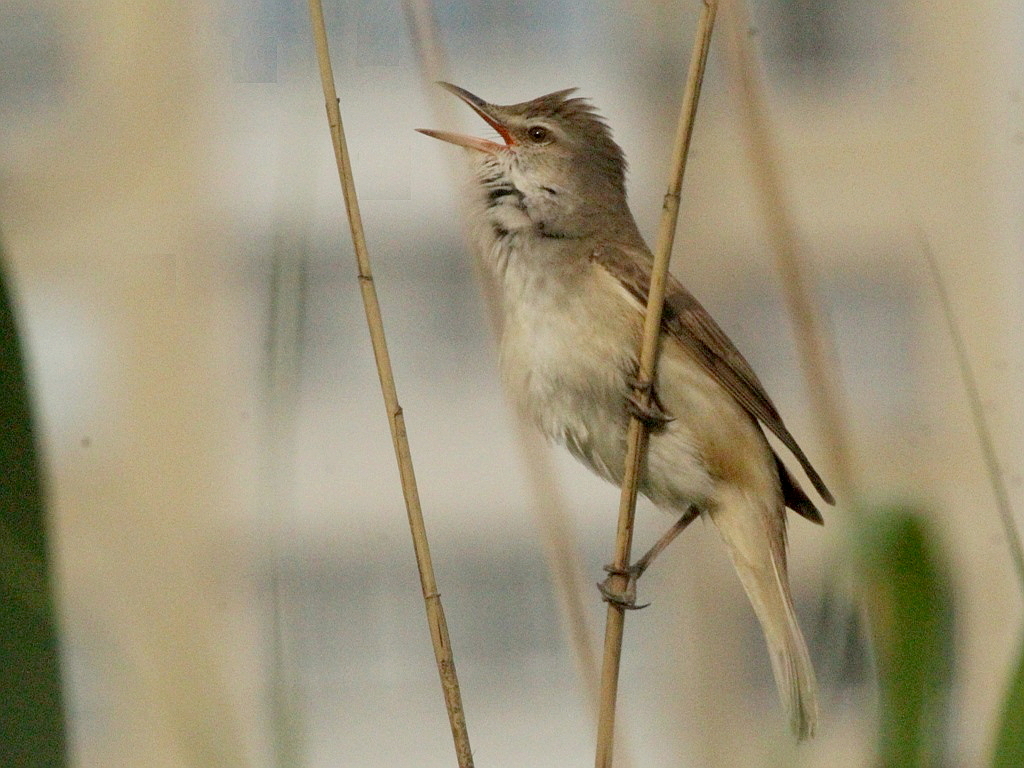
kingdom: Animalia
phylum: Chordata
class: Aves
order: Passeriformes
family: Acrocephalidae
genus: Acrocephalus
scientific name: Acrocephalus arundinaceus
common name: Great reed warbler
